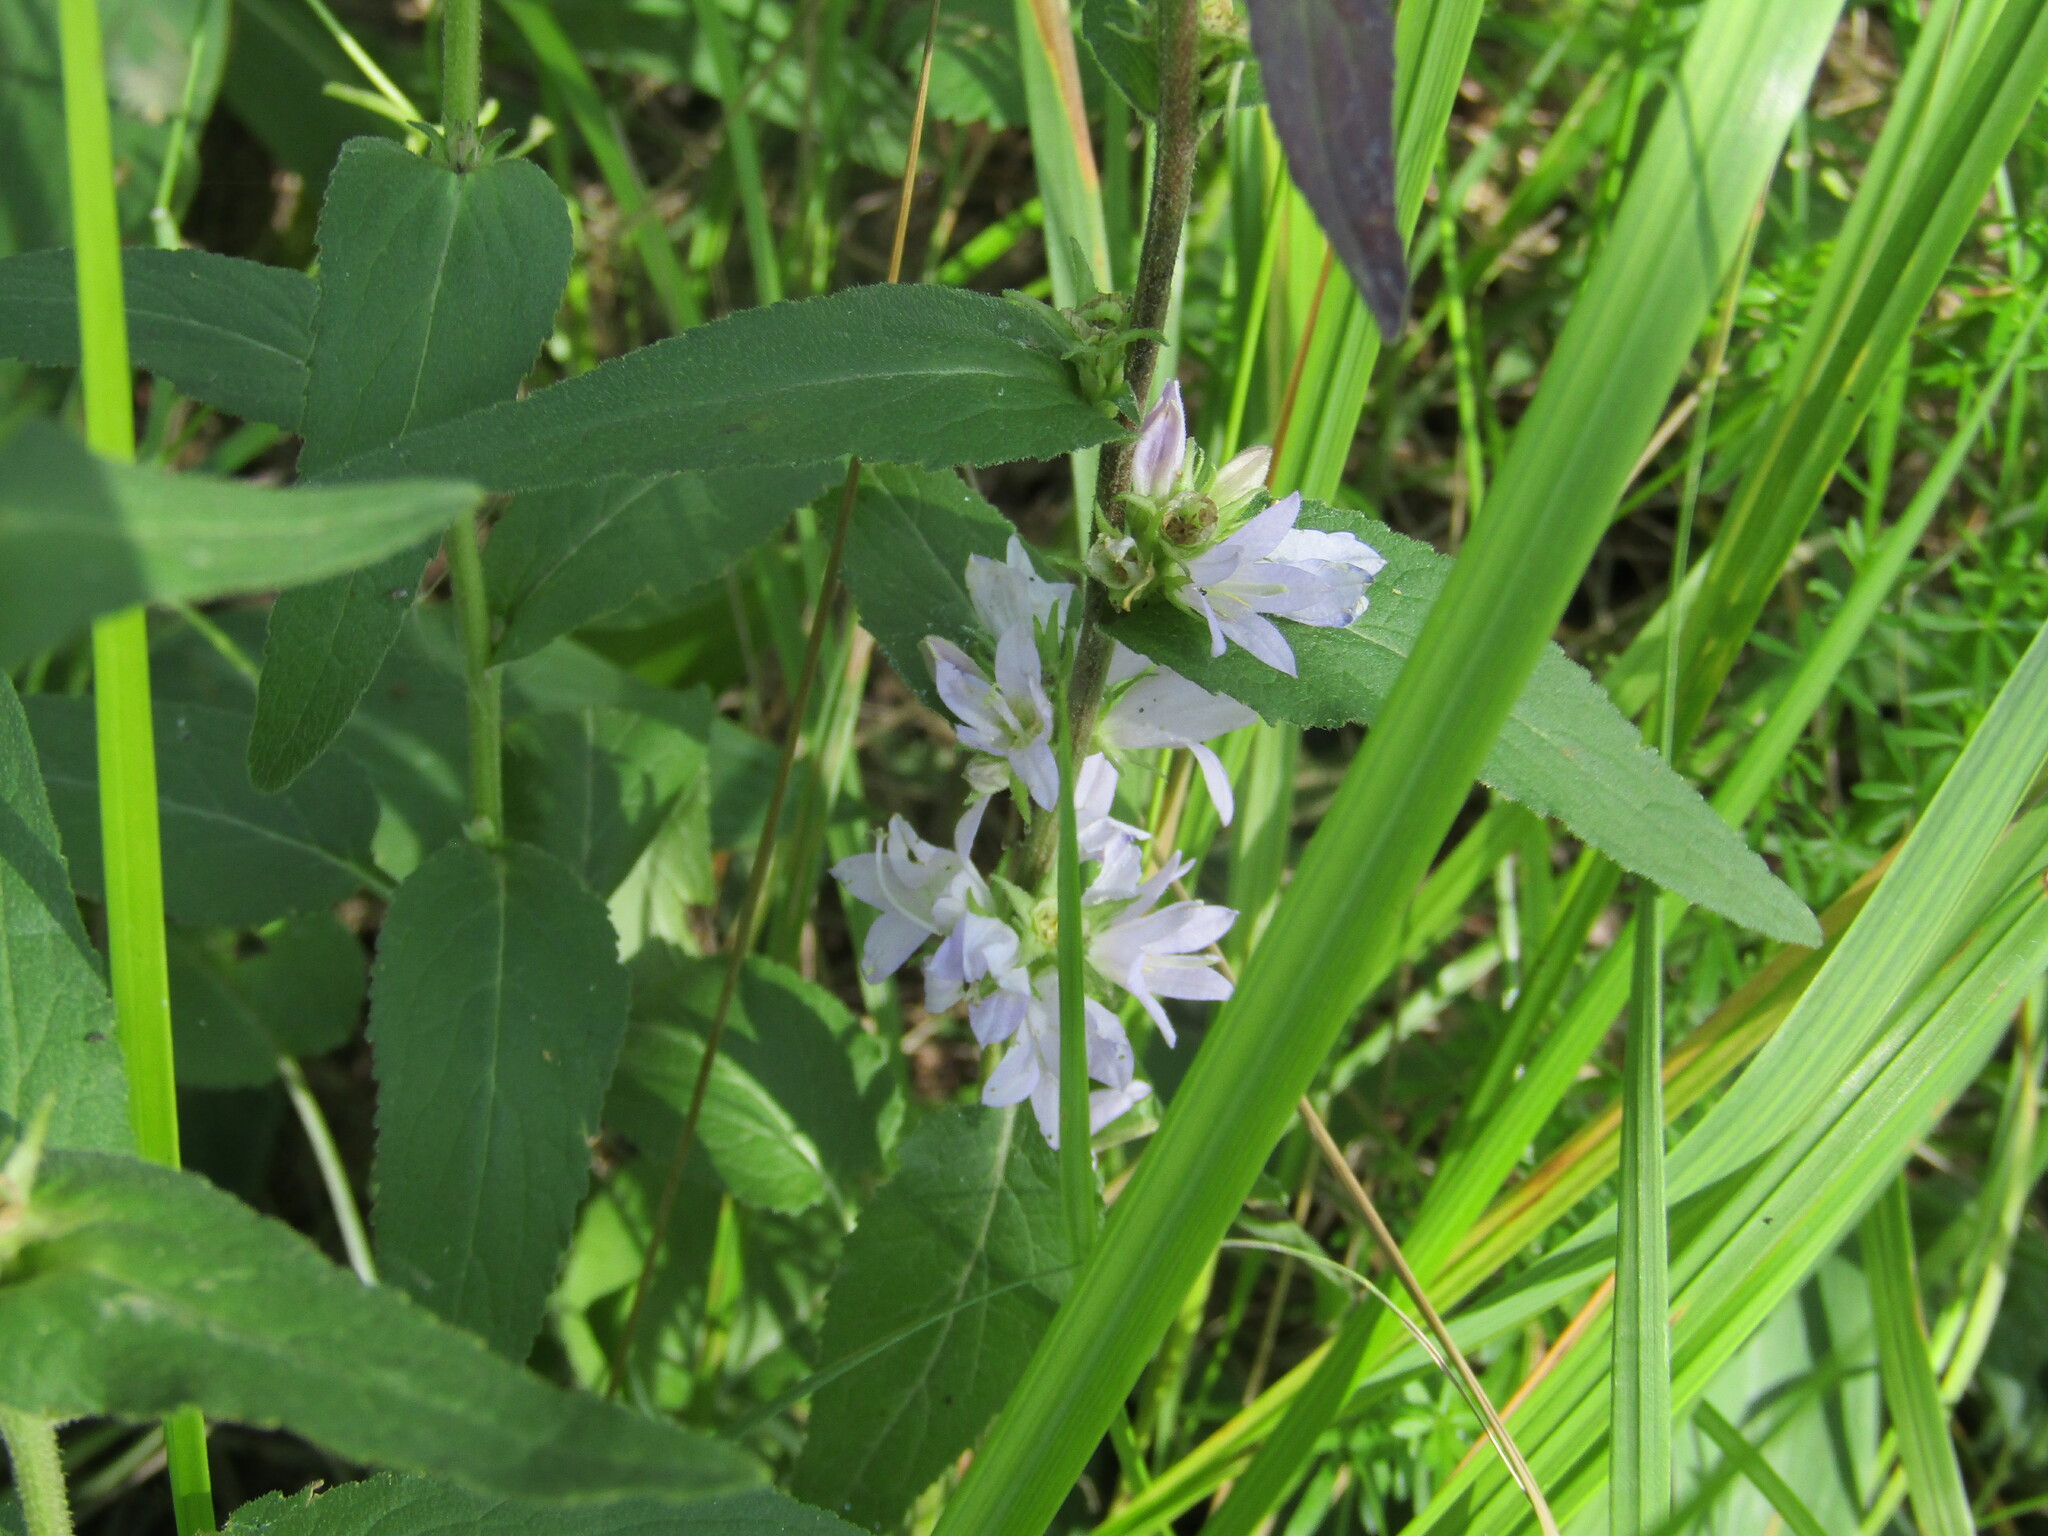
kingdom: Plantae
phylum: Tracheophyta
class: Magnoliopsida
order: Asterales
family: Campanulaceae
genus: Campanula
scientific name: Campanula glomerata
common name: Clustered bellflower
